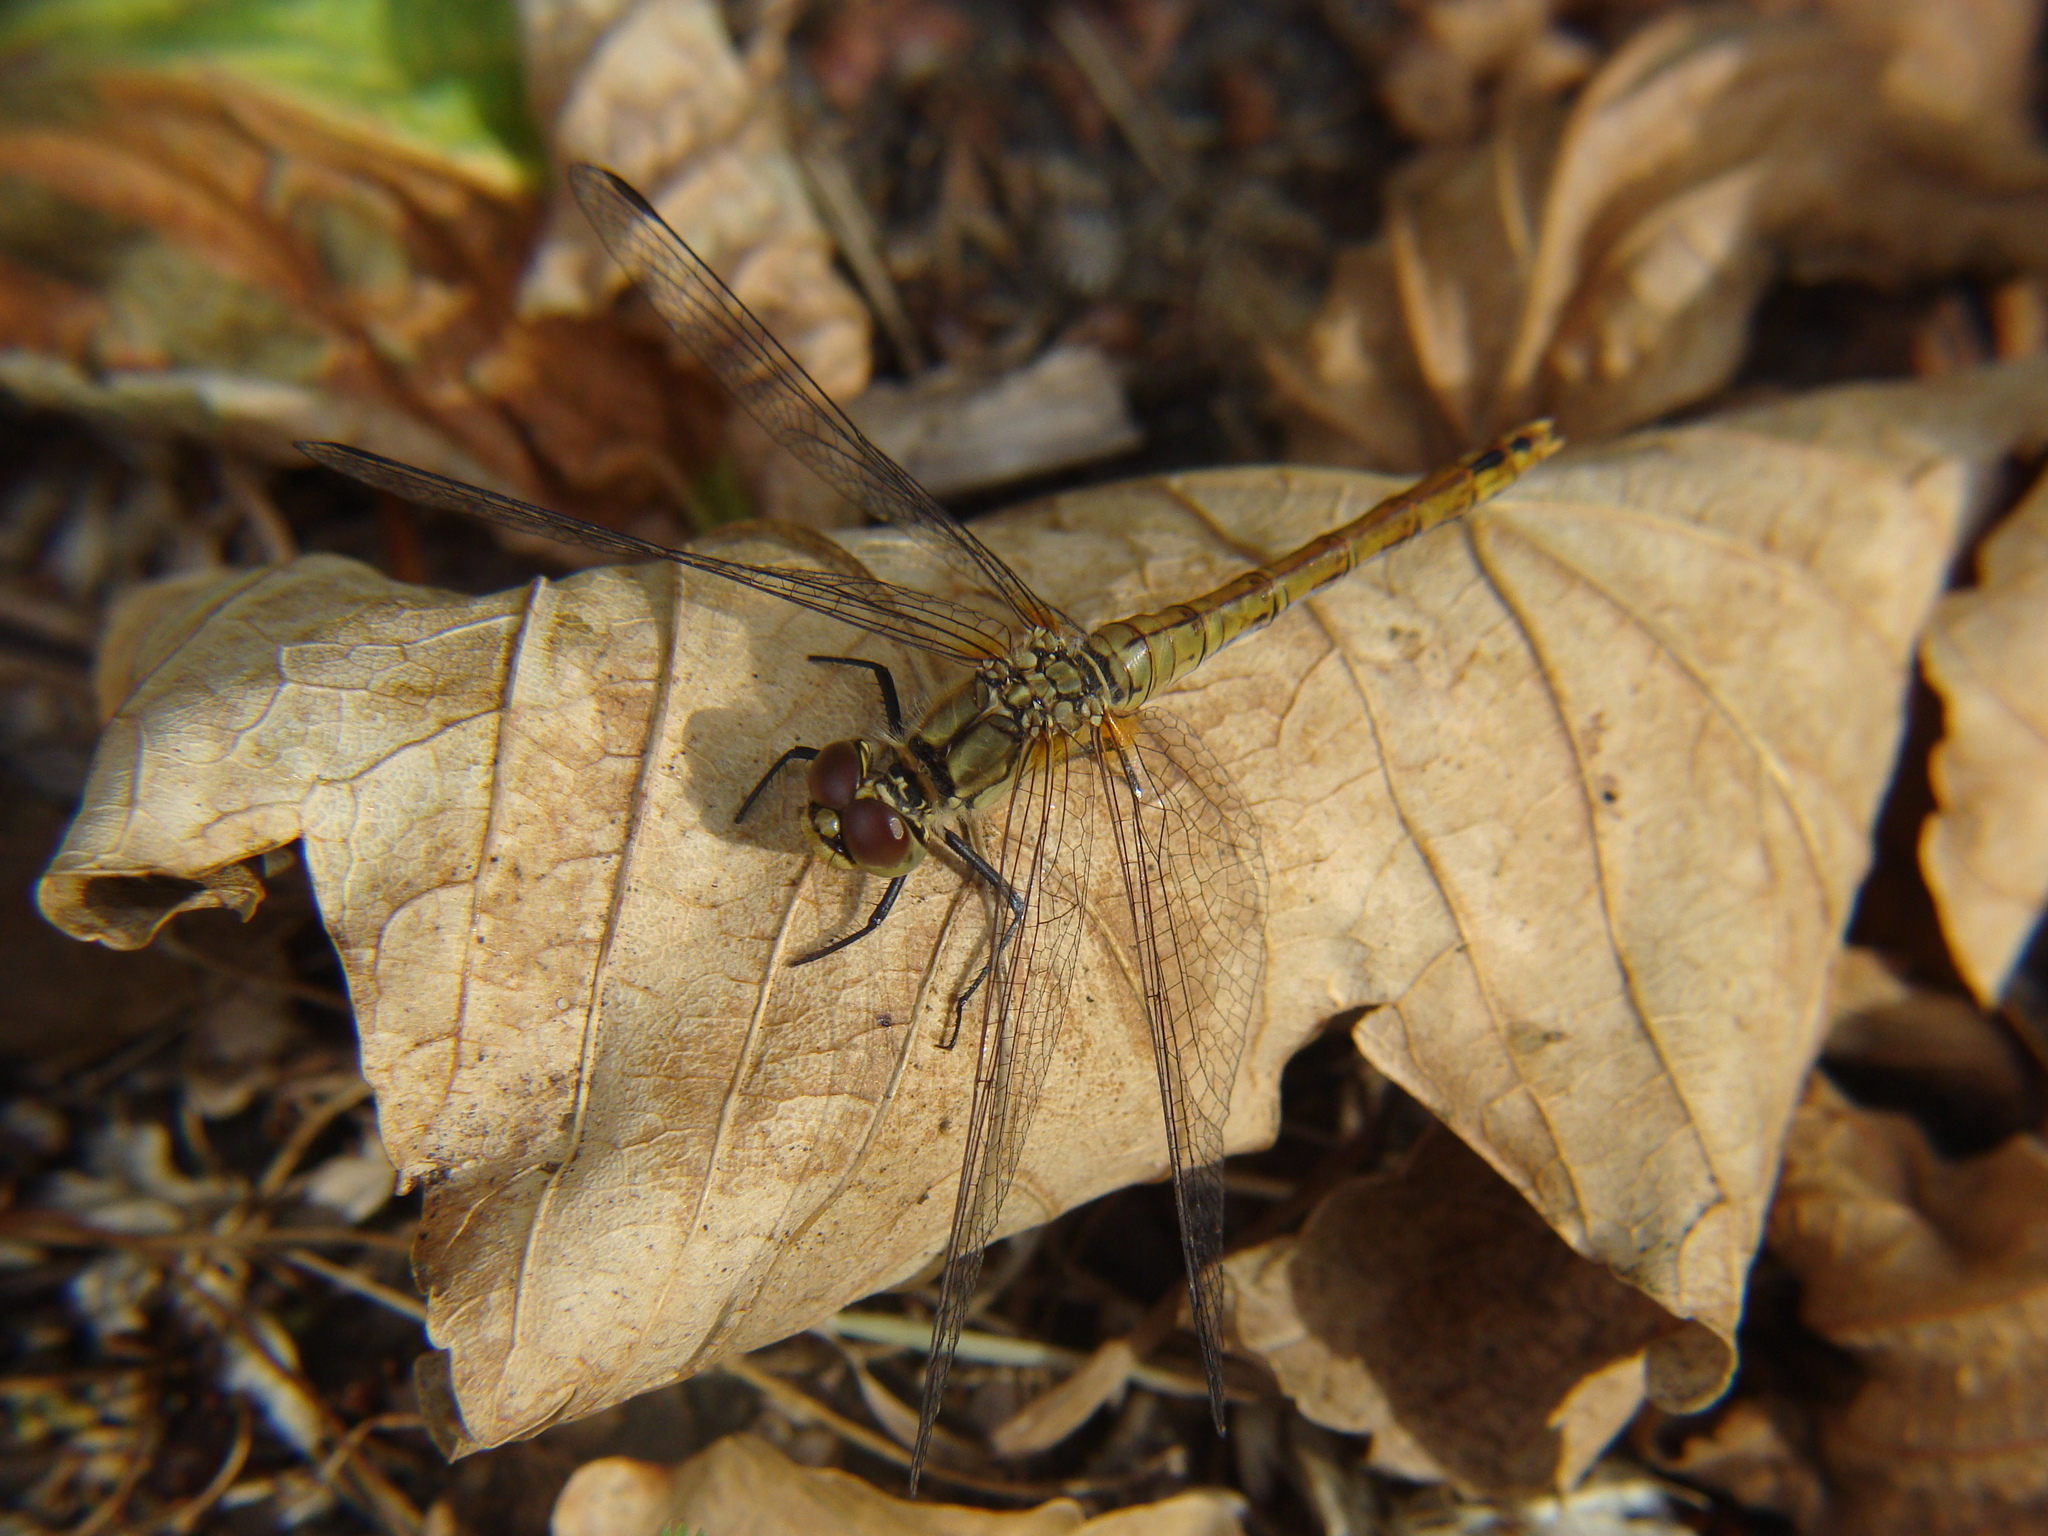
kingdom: Animalia
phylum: Arthropoda
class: Insecta
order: Odonata
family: Libellulidae
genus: Sympetrum
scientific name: Sympetrum sanguineum
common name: Ruddy darter
